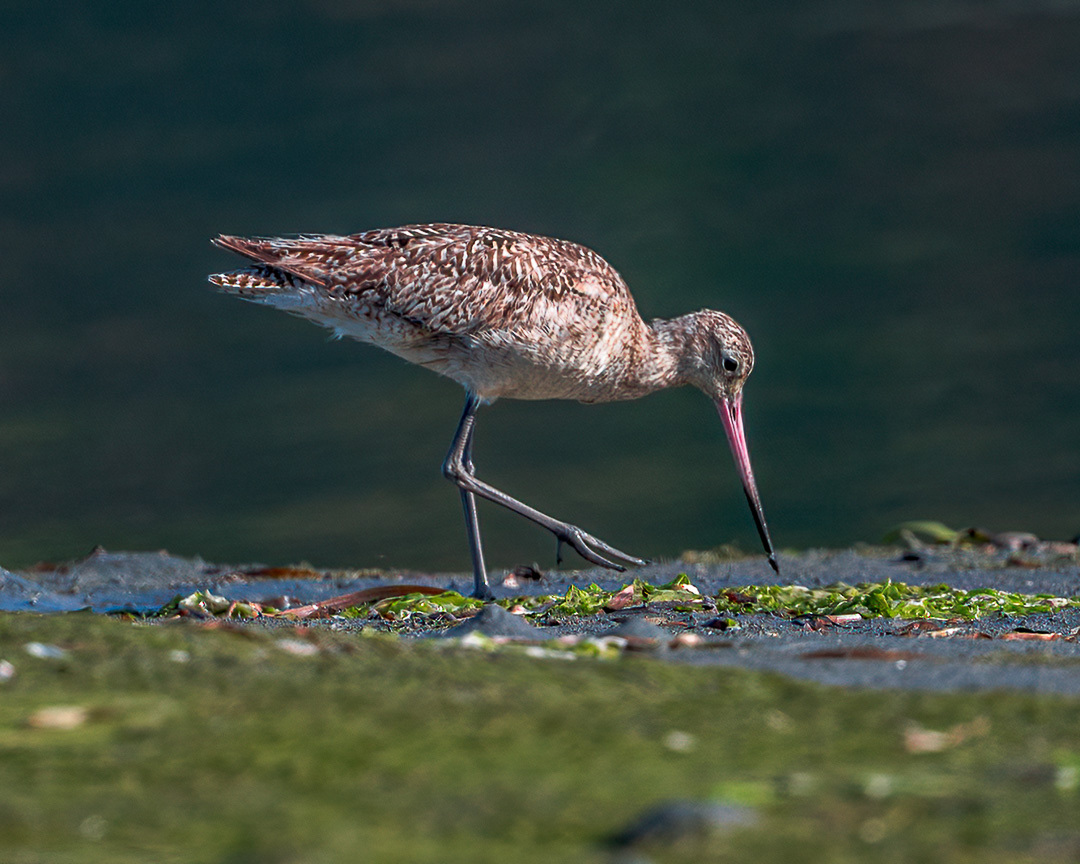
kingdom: Animalia
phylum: Chordata
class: Aves
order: Charadriiformes
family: Scolopacidae
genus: Limosa
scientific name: Limosa fedoa
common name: Marbled godwit
